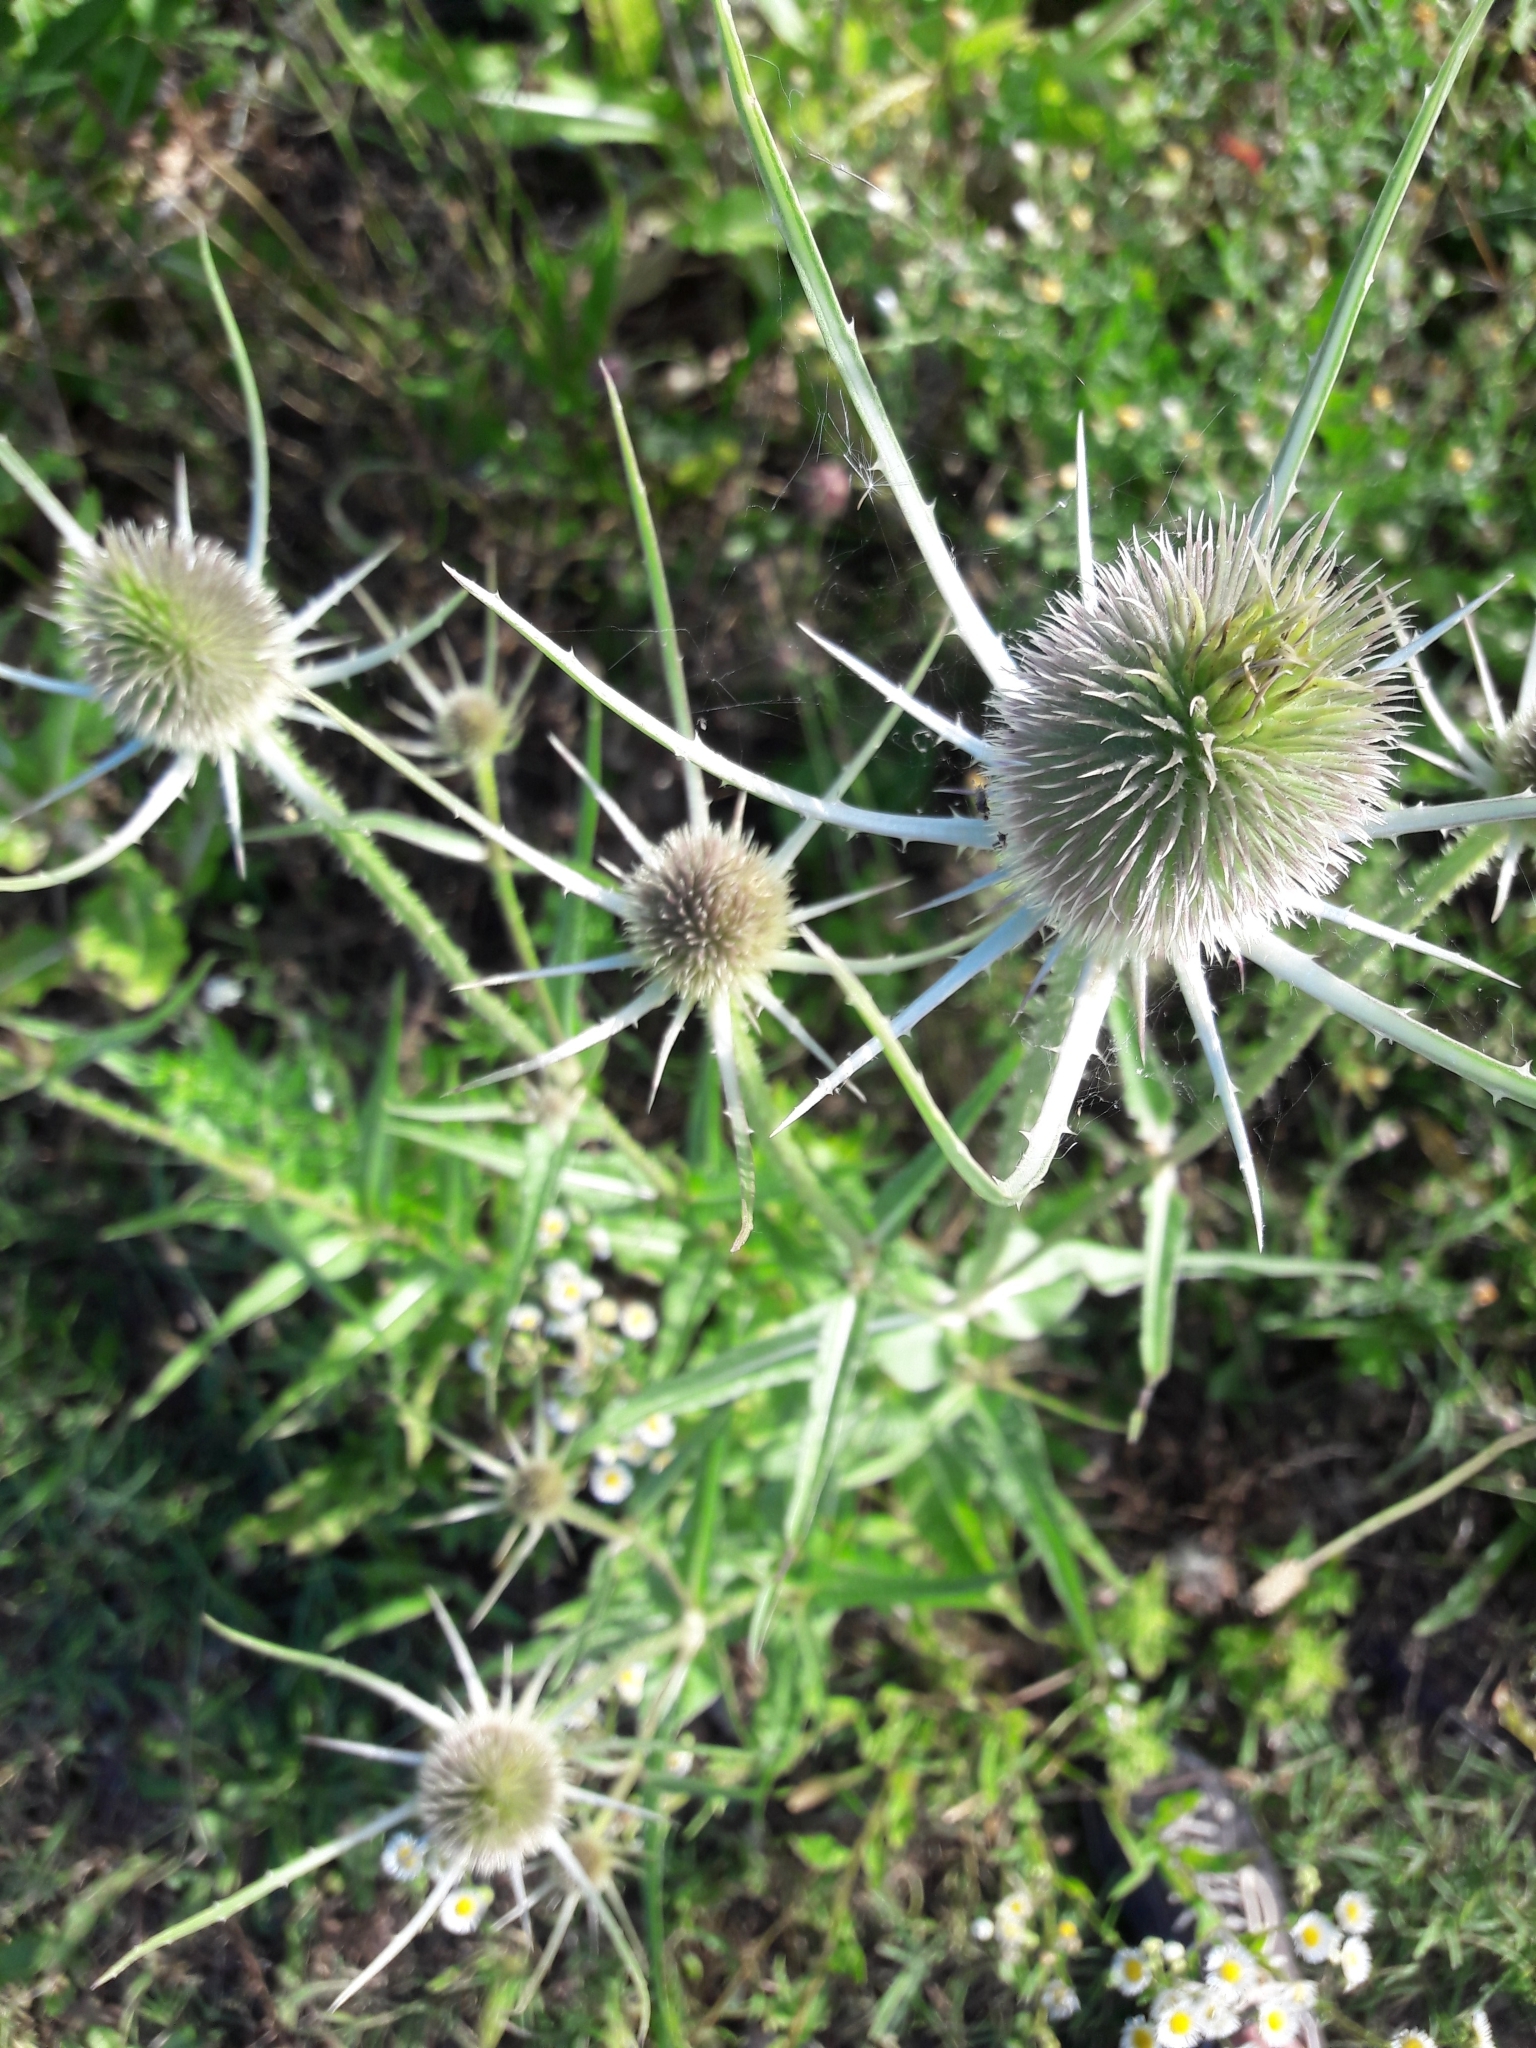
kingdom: Plantae
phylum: Tracheophyta
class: Magnoliopsida
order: Dipsacales
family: Caprifoliaceae
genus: Dipsacus
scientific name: Dipsacus fullonum
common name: Teasel
